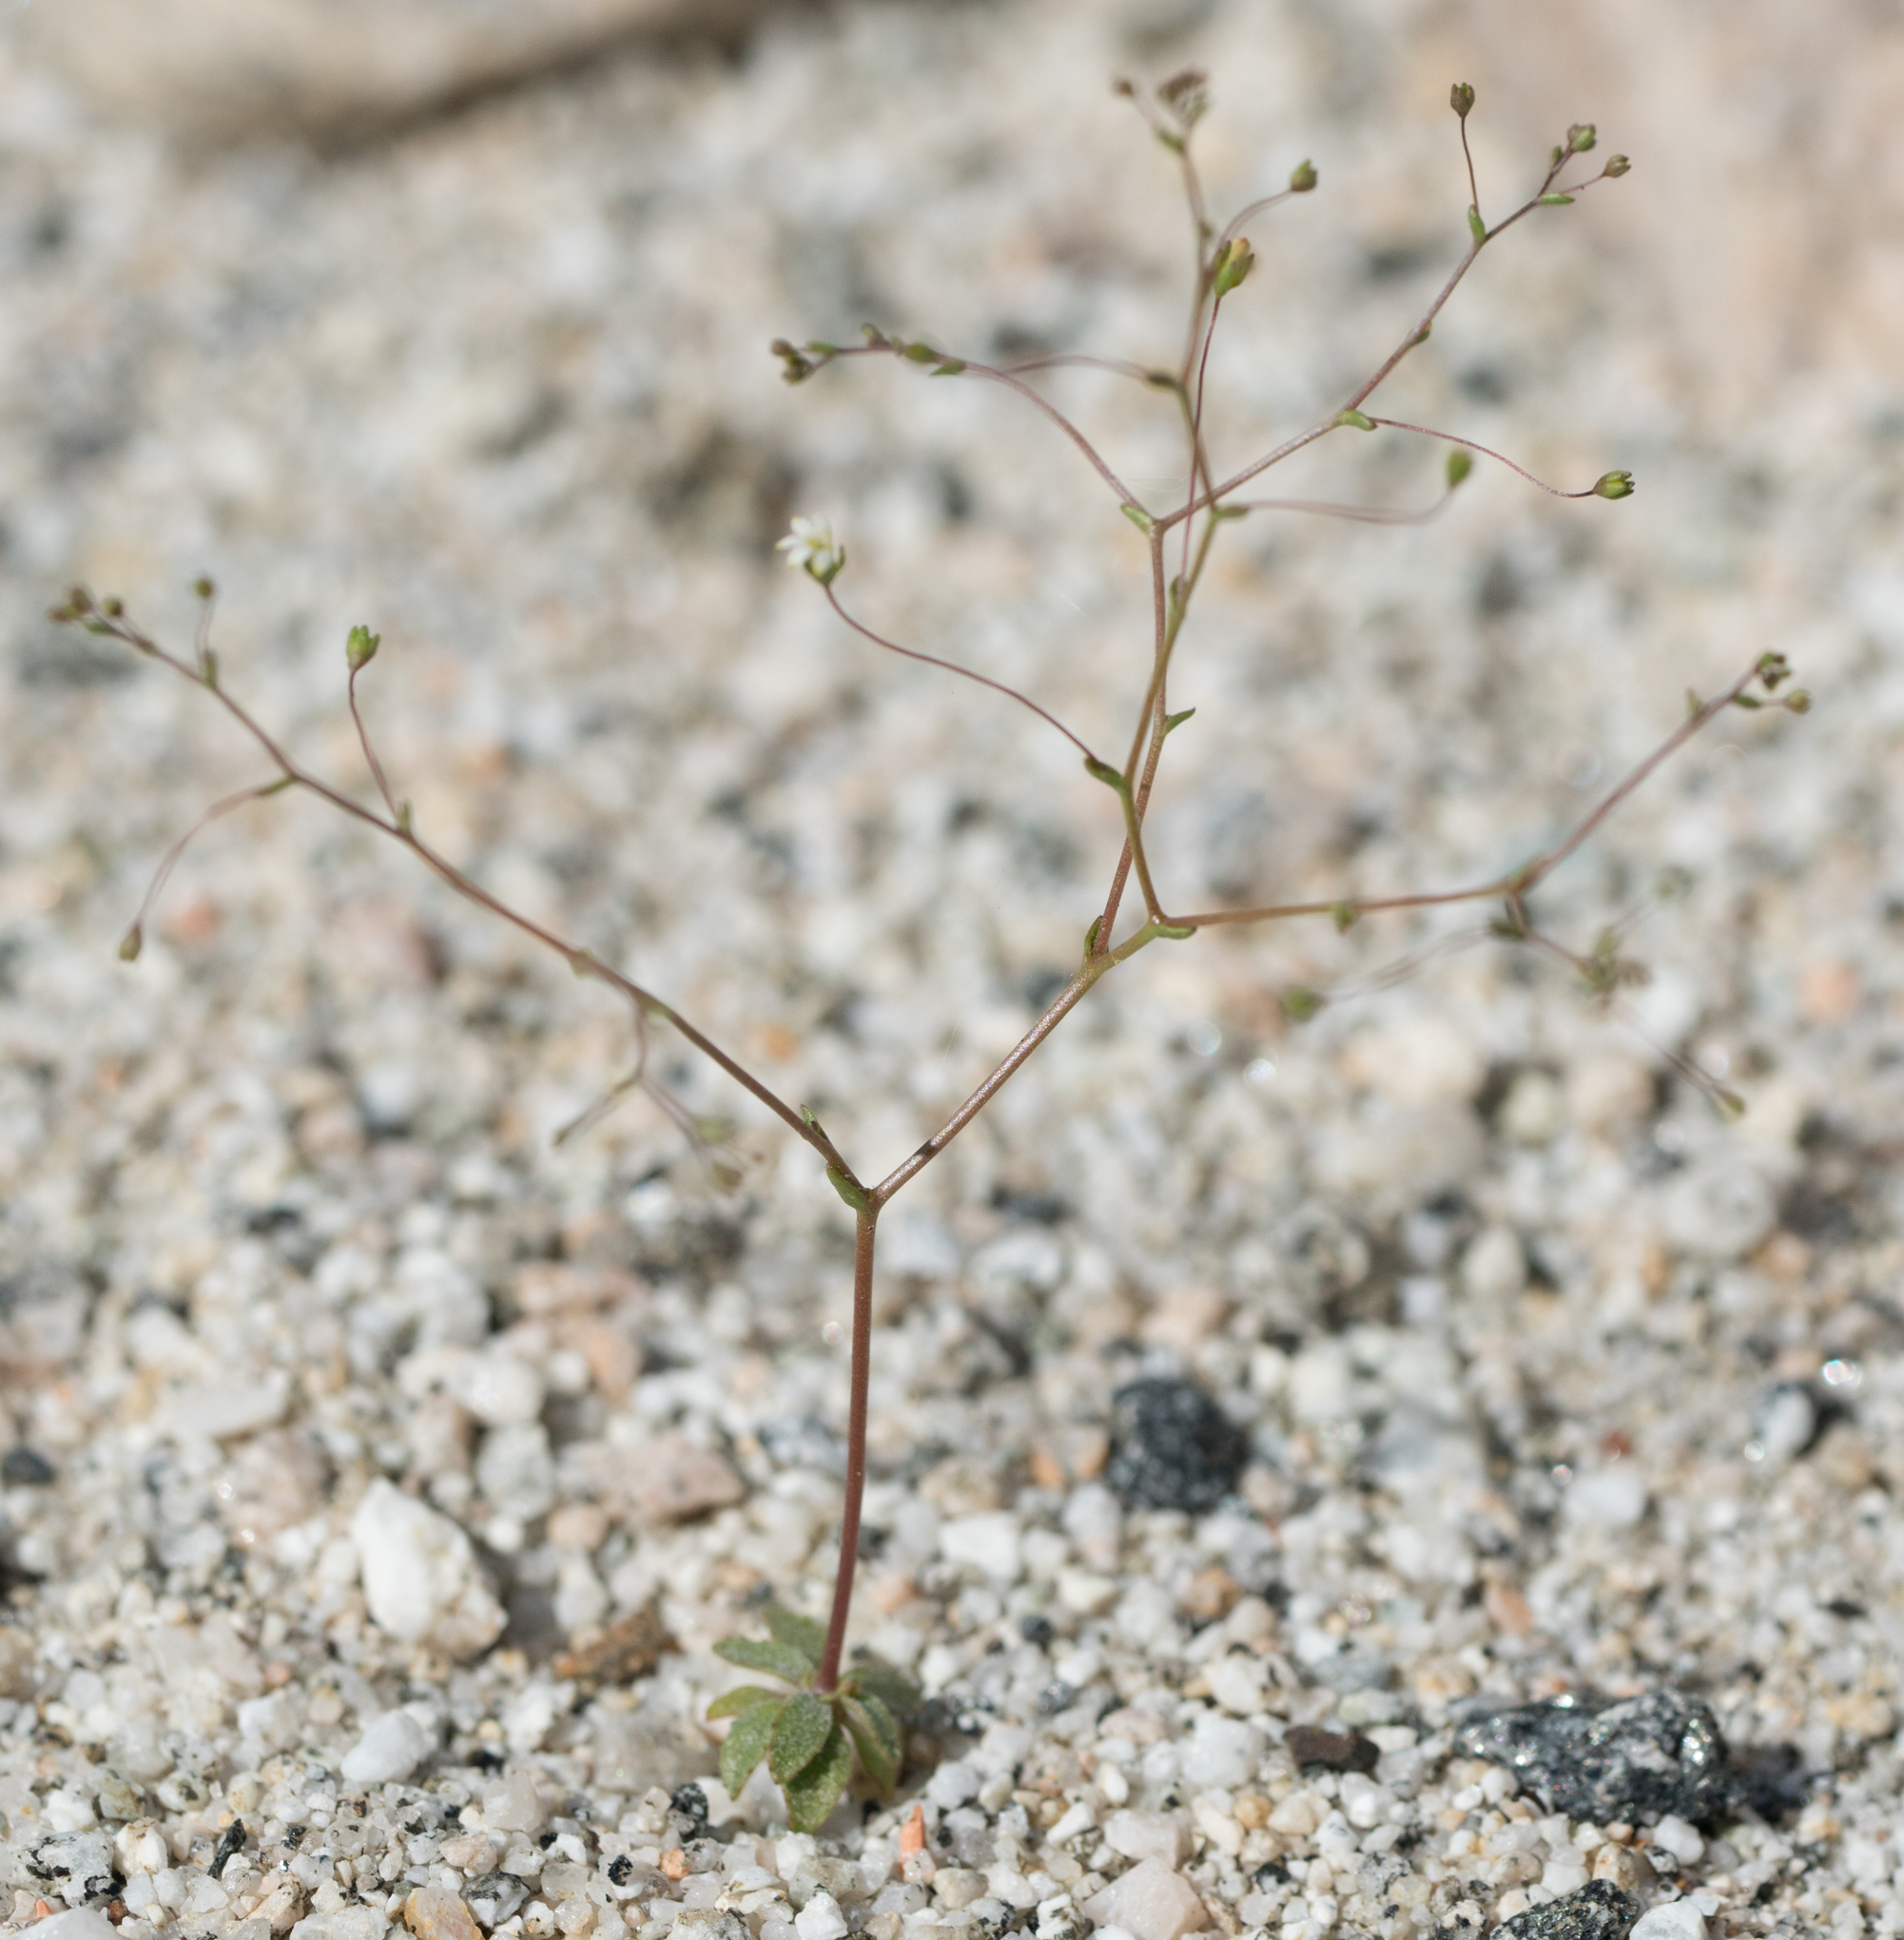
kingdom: Plantae
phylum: Tracheophyta
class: Magnoliopsida
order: Asterales
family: Campanulaceae
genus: Nemacladus
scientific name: Nemacladus sigmoideus
